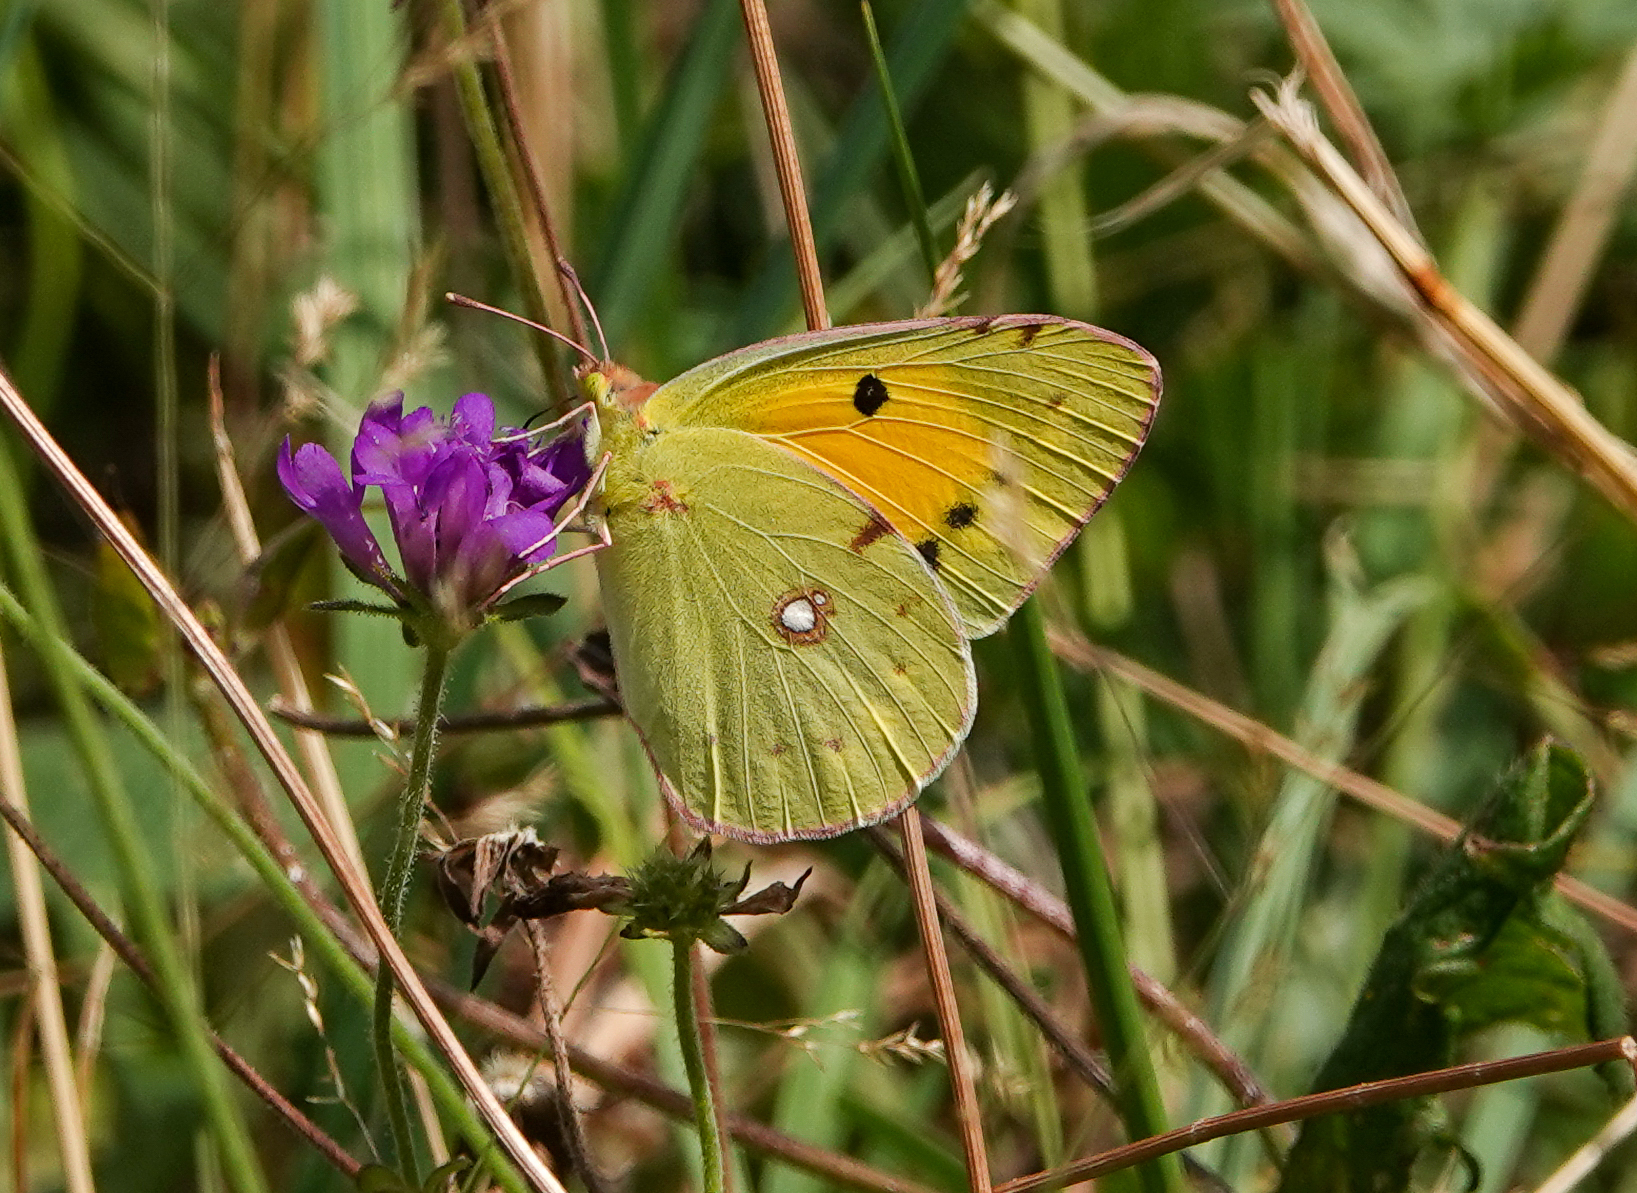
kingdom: Animalia
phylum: Arthropoda
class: Insecta
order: Lepidoptera
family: Pieridae
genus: Colias
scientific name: Colias croceus
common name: Clouded yellow
